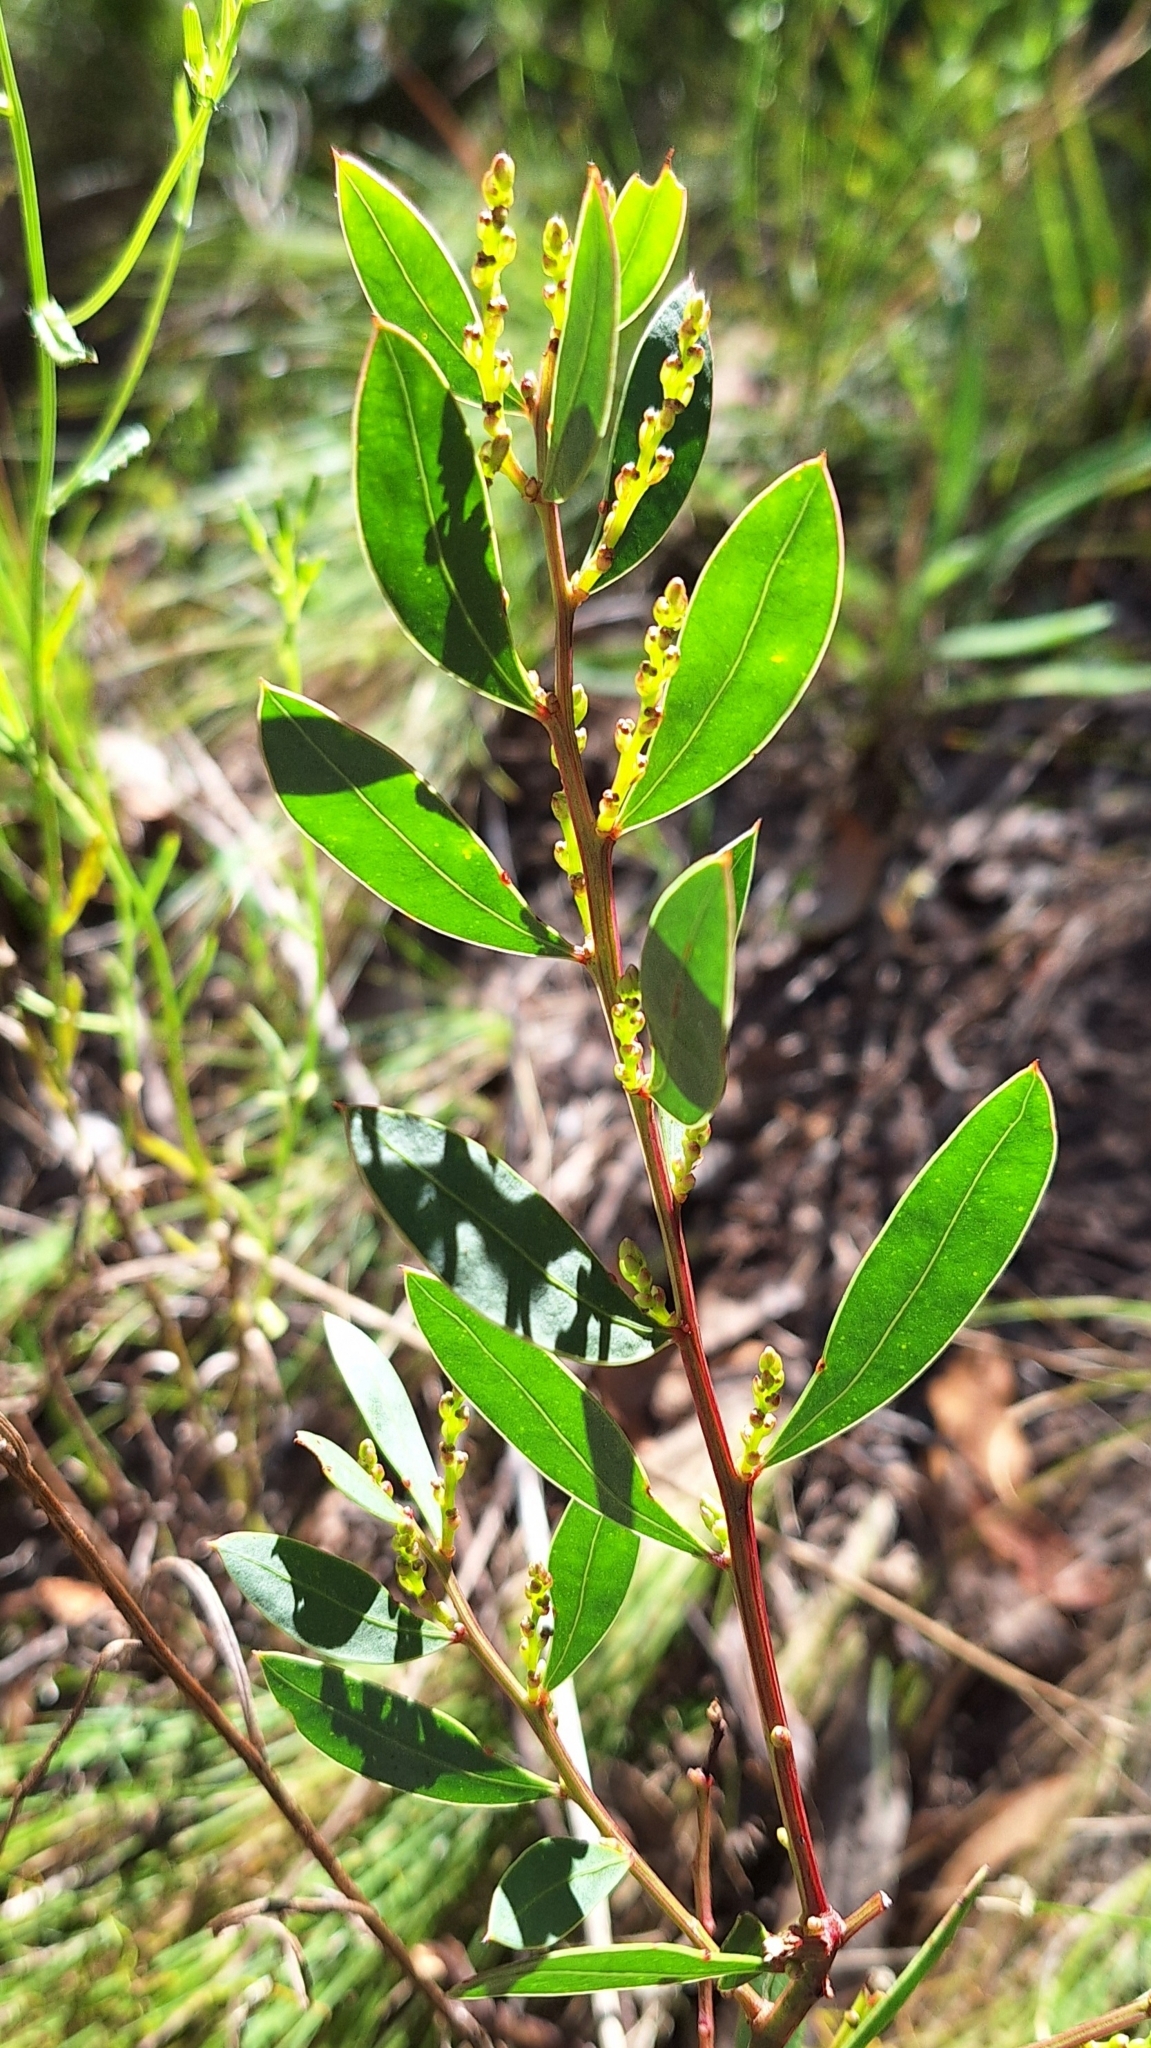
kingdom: Plantae
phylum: Tracheophyta
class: Magnoliopsida
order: Fabales
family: Fabaceae
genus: Acacia
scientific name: Acacia myrtifolia
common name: Myrtle wattle
